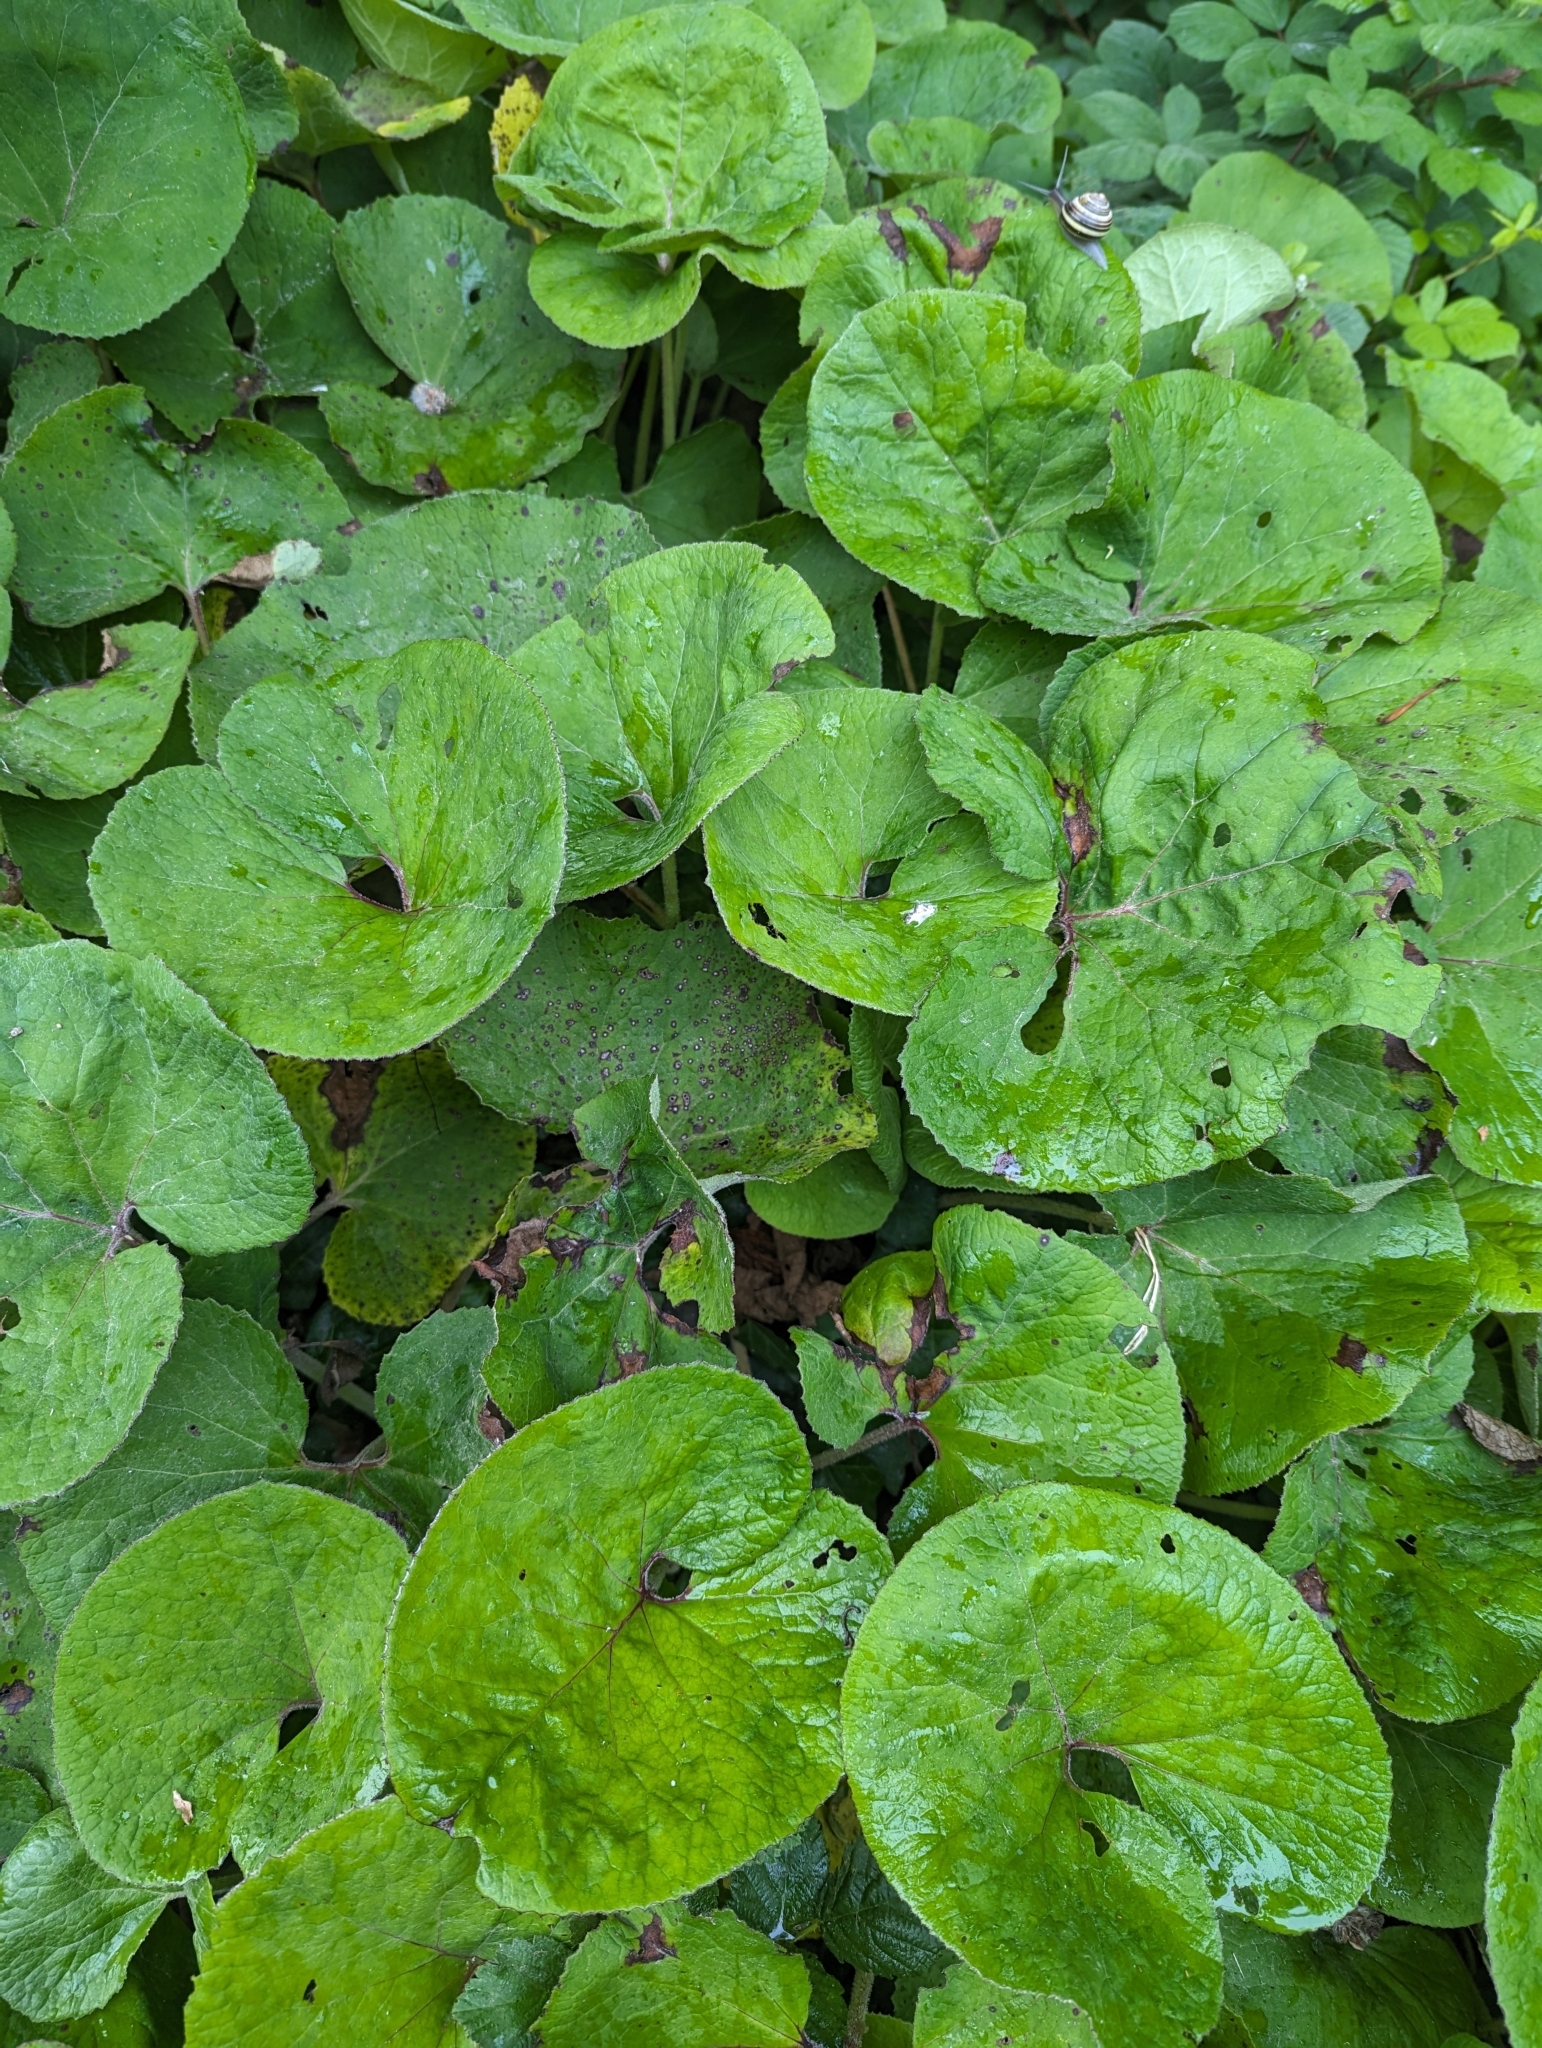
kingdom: Plantae
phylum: Tracheophyta
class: Magnoliopsida
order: Asterales
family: Asteraceae
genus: Petasites
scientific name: Petasites pyrenaicus
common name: Winter heliotrope
